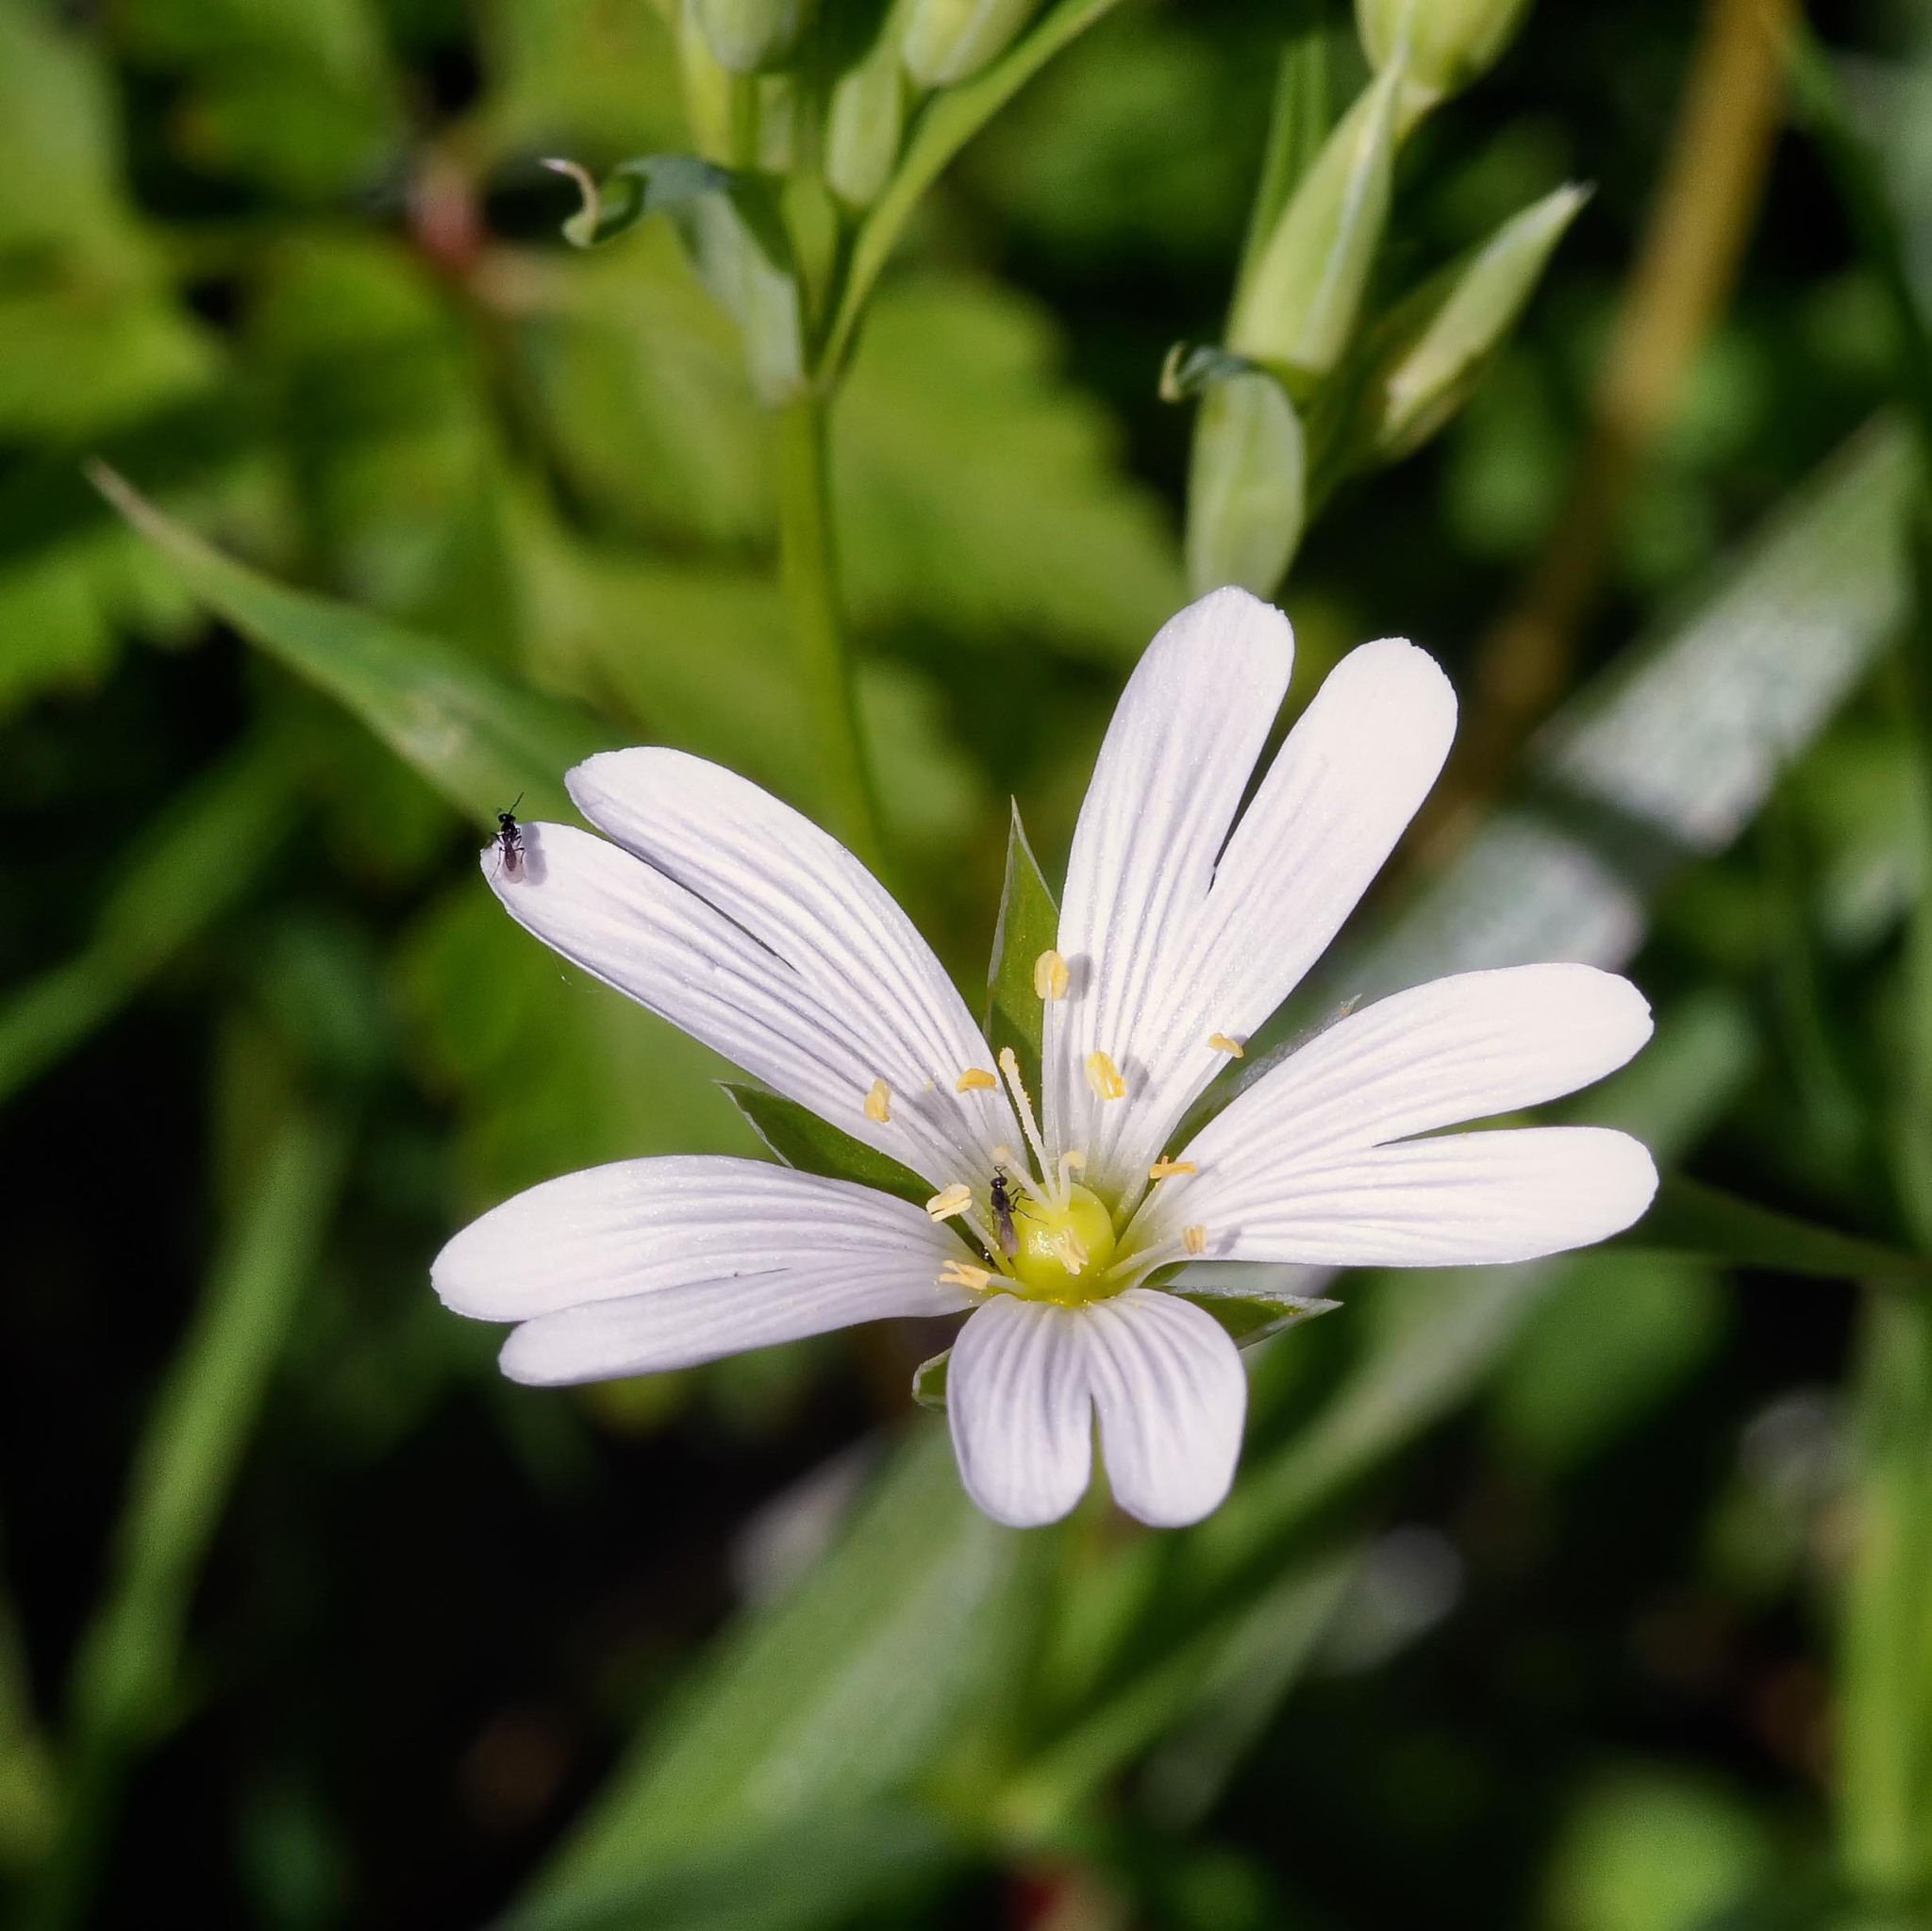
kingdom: Plantae
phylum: Tracheophyta
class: Magnoliopsida
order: Caryophyllales
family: Caryophyllaceae
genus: Rabelera
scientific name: Rabelera holostea
